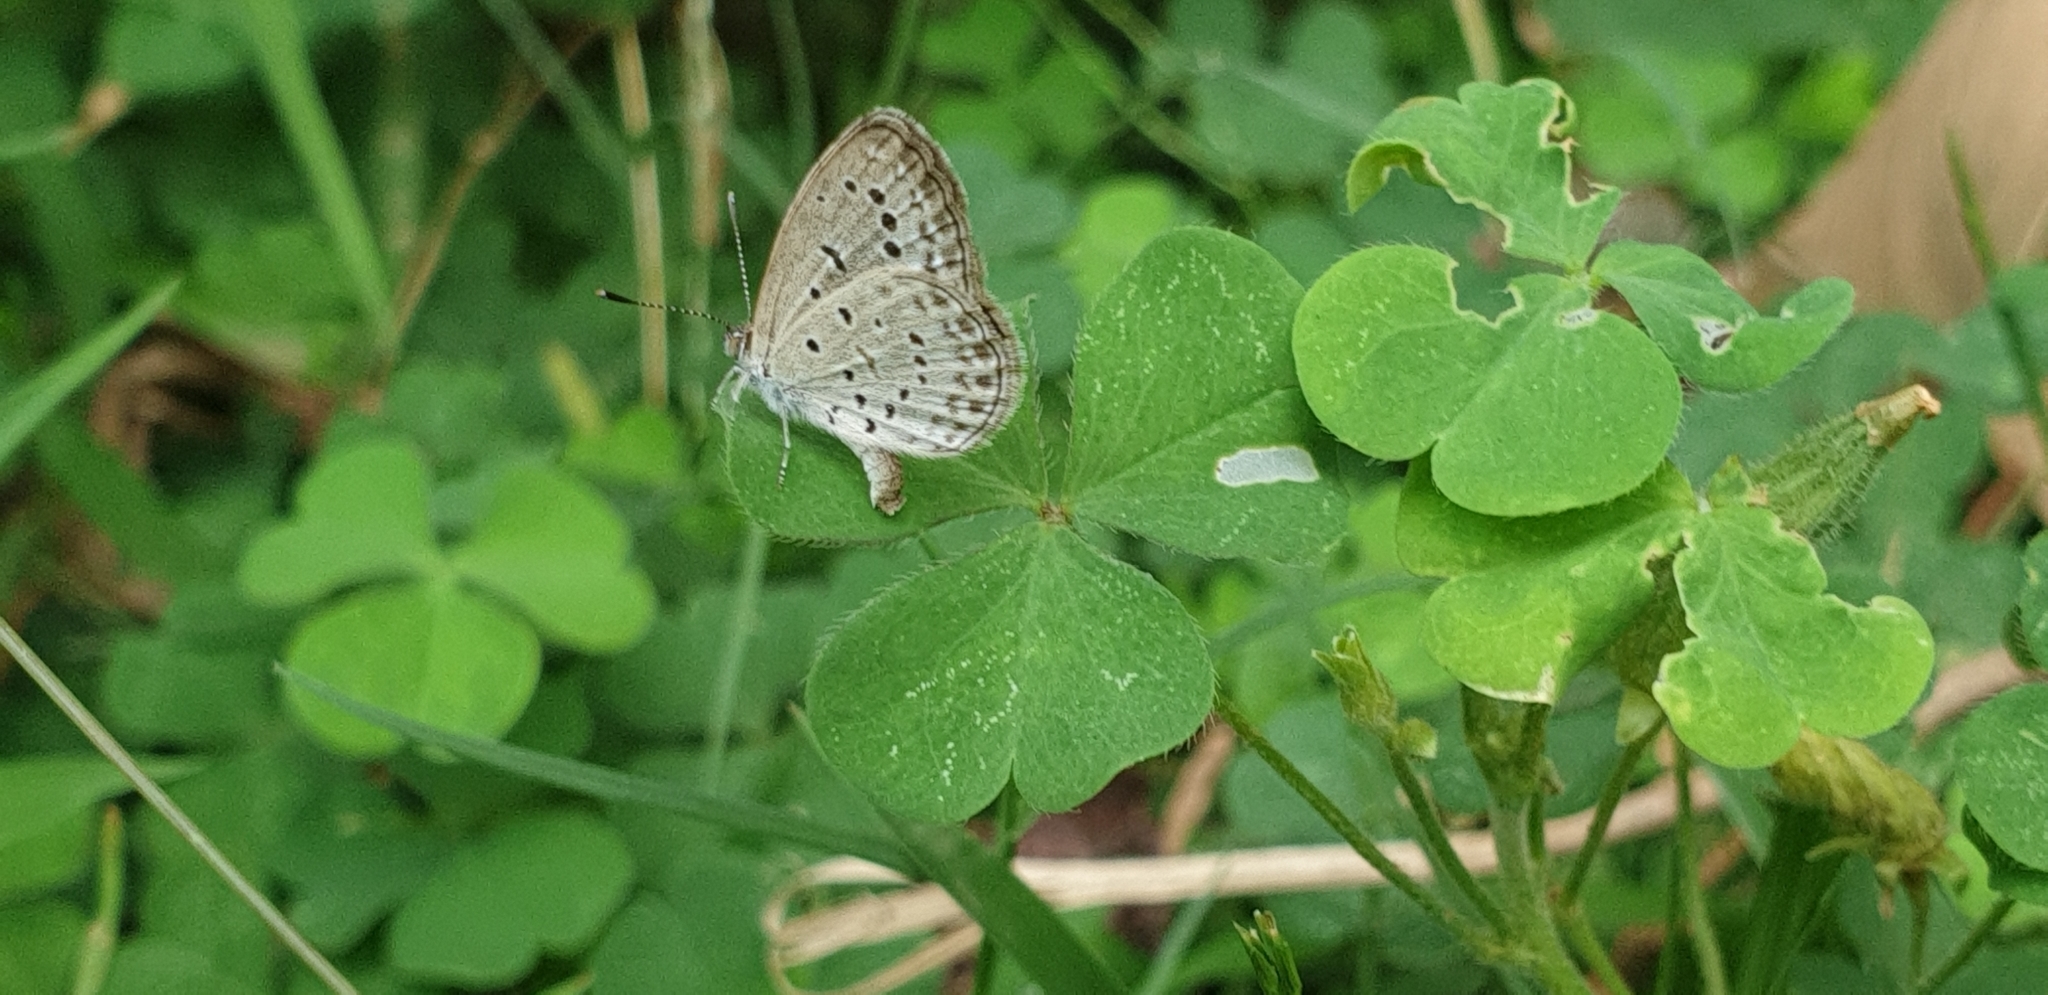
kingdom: Animalia
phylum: Arthropoda
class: Insecta
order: Lepidoptera
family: Lycaenidae
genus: Zizeeria
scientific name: Zizeeria karsandra
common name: Dark grass blue
